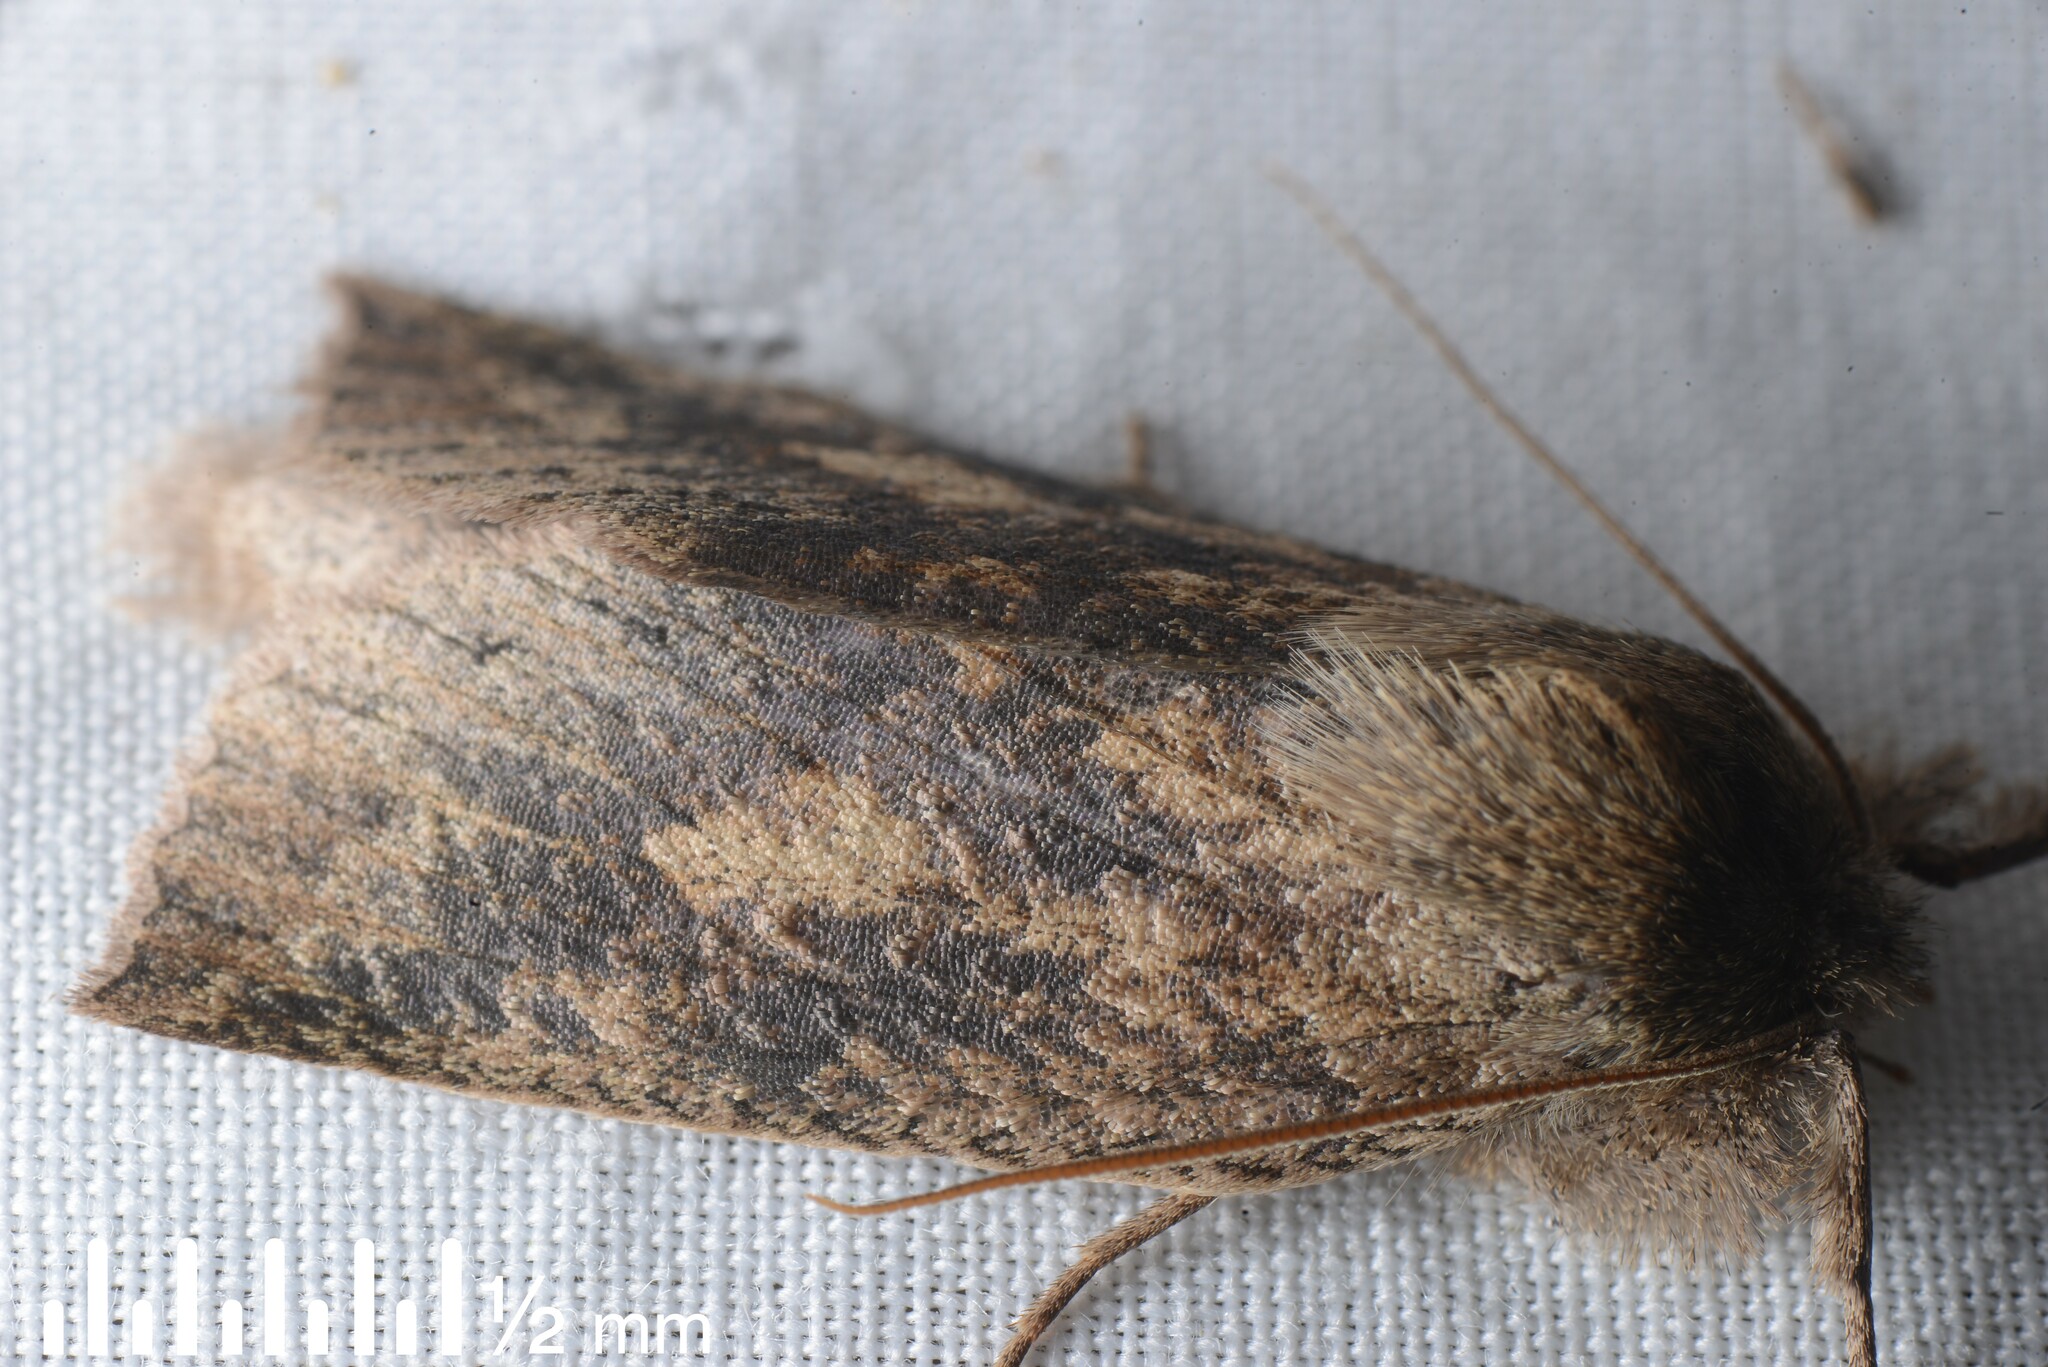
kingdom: Animalia
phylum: Arthropoda
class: Insecta
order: Lepidoptera
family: Geometridae
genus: Declana
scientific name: Declana leptomera
